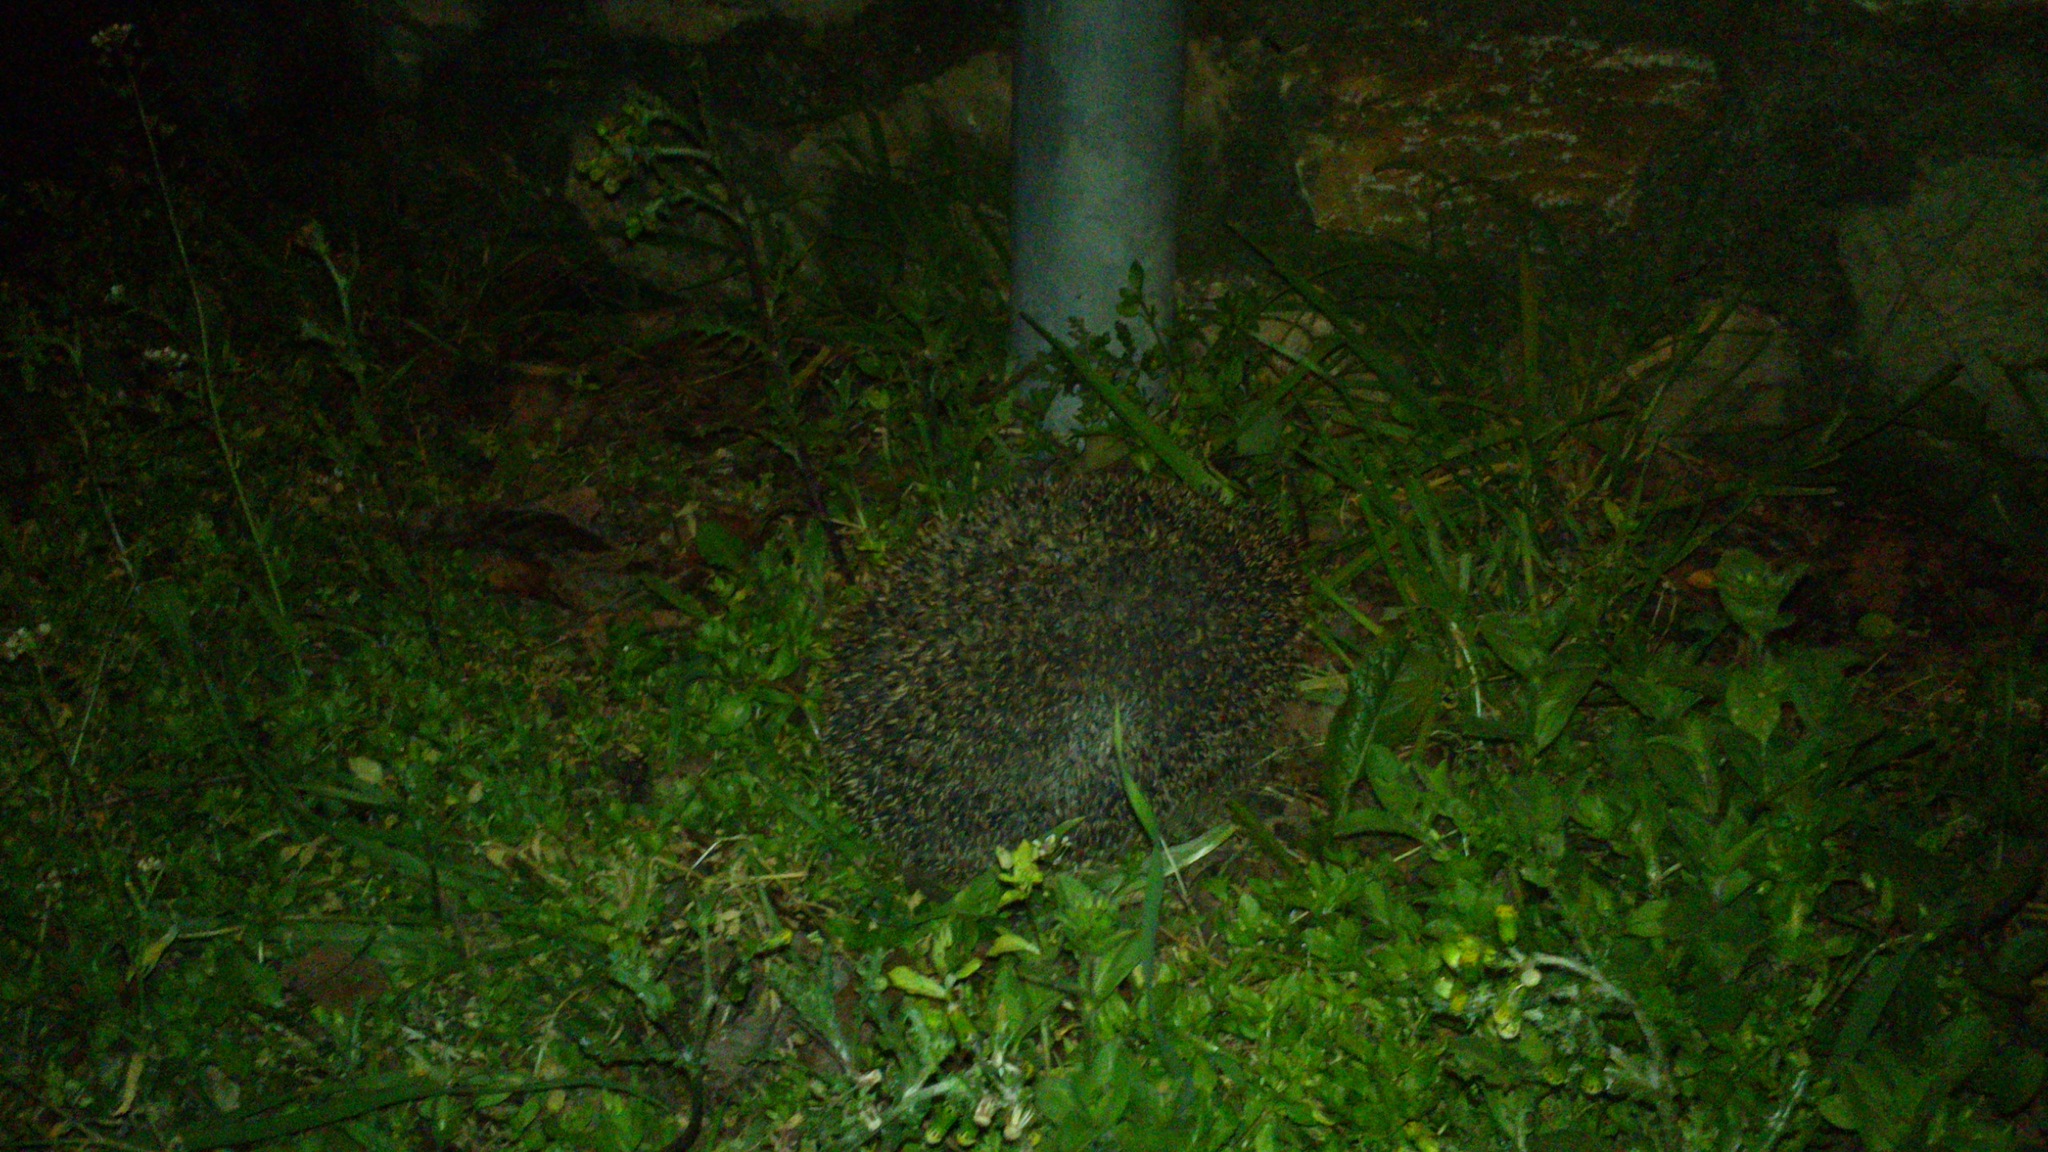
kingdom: Animalia
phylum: Chordata
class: Mammalia
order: Erinaceomorpha
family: Erinaceidae
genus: Erinaceus
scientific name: Erinaceus europaeus
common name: West european hedgehog
